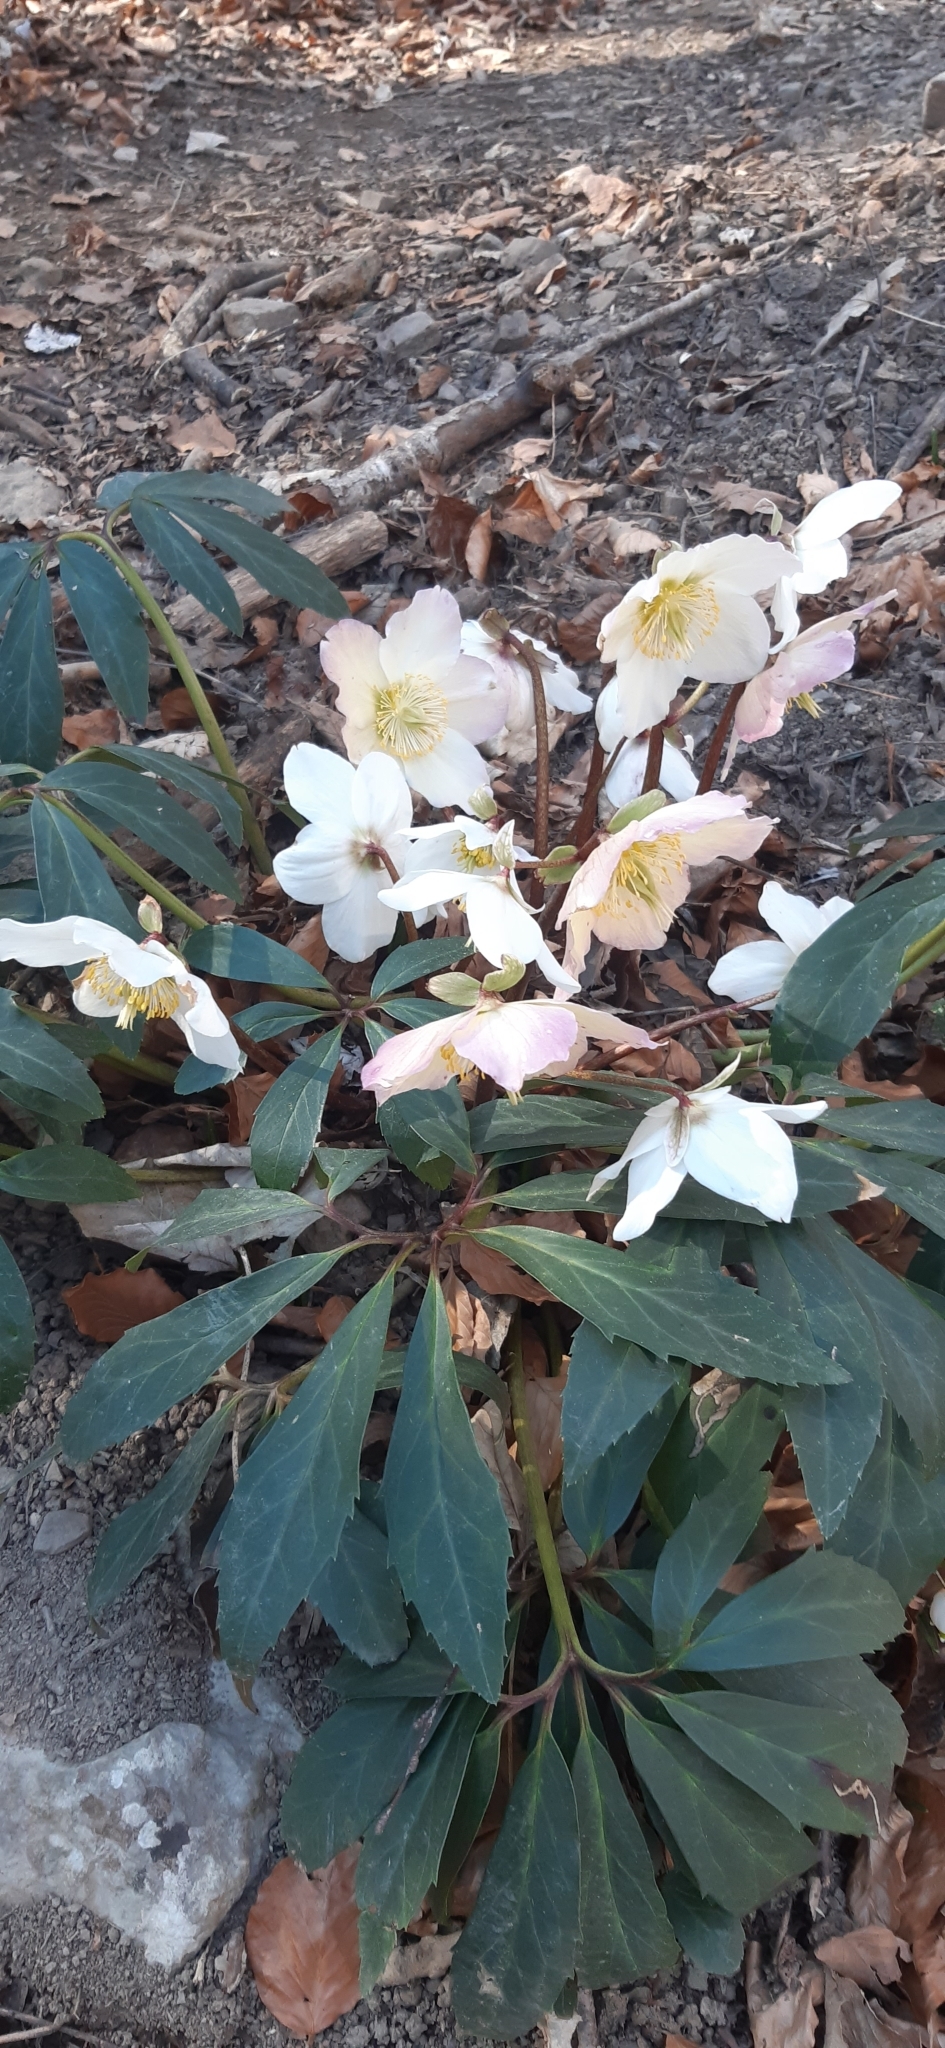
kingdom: Plantae
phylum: Tracheophyta
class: Magnoliopsida
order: Ranunculales
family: Ranunculaceae
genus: Helleborus
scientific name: Helleborus niger
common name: Black hellebore
